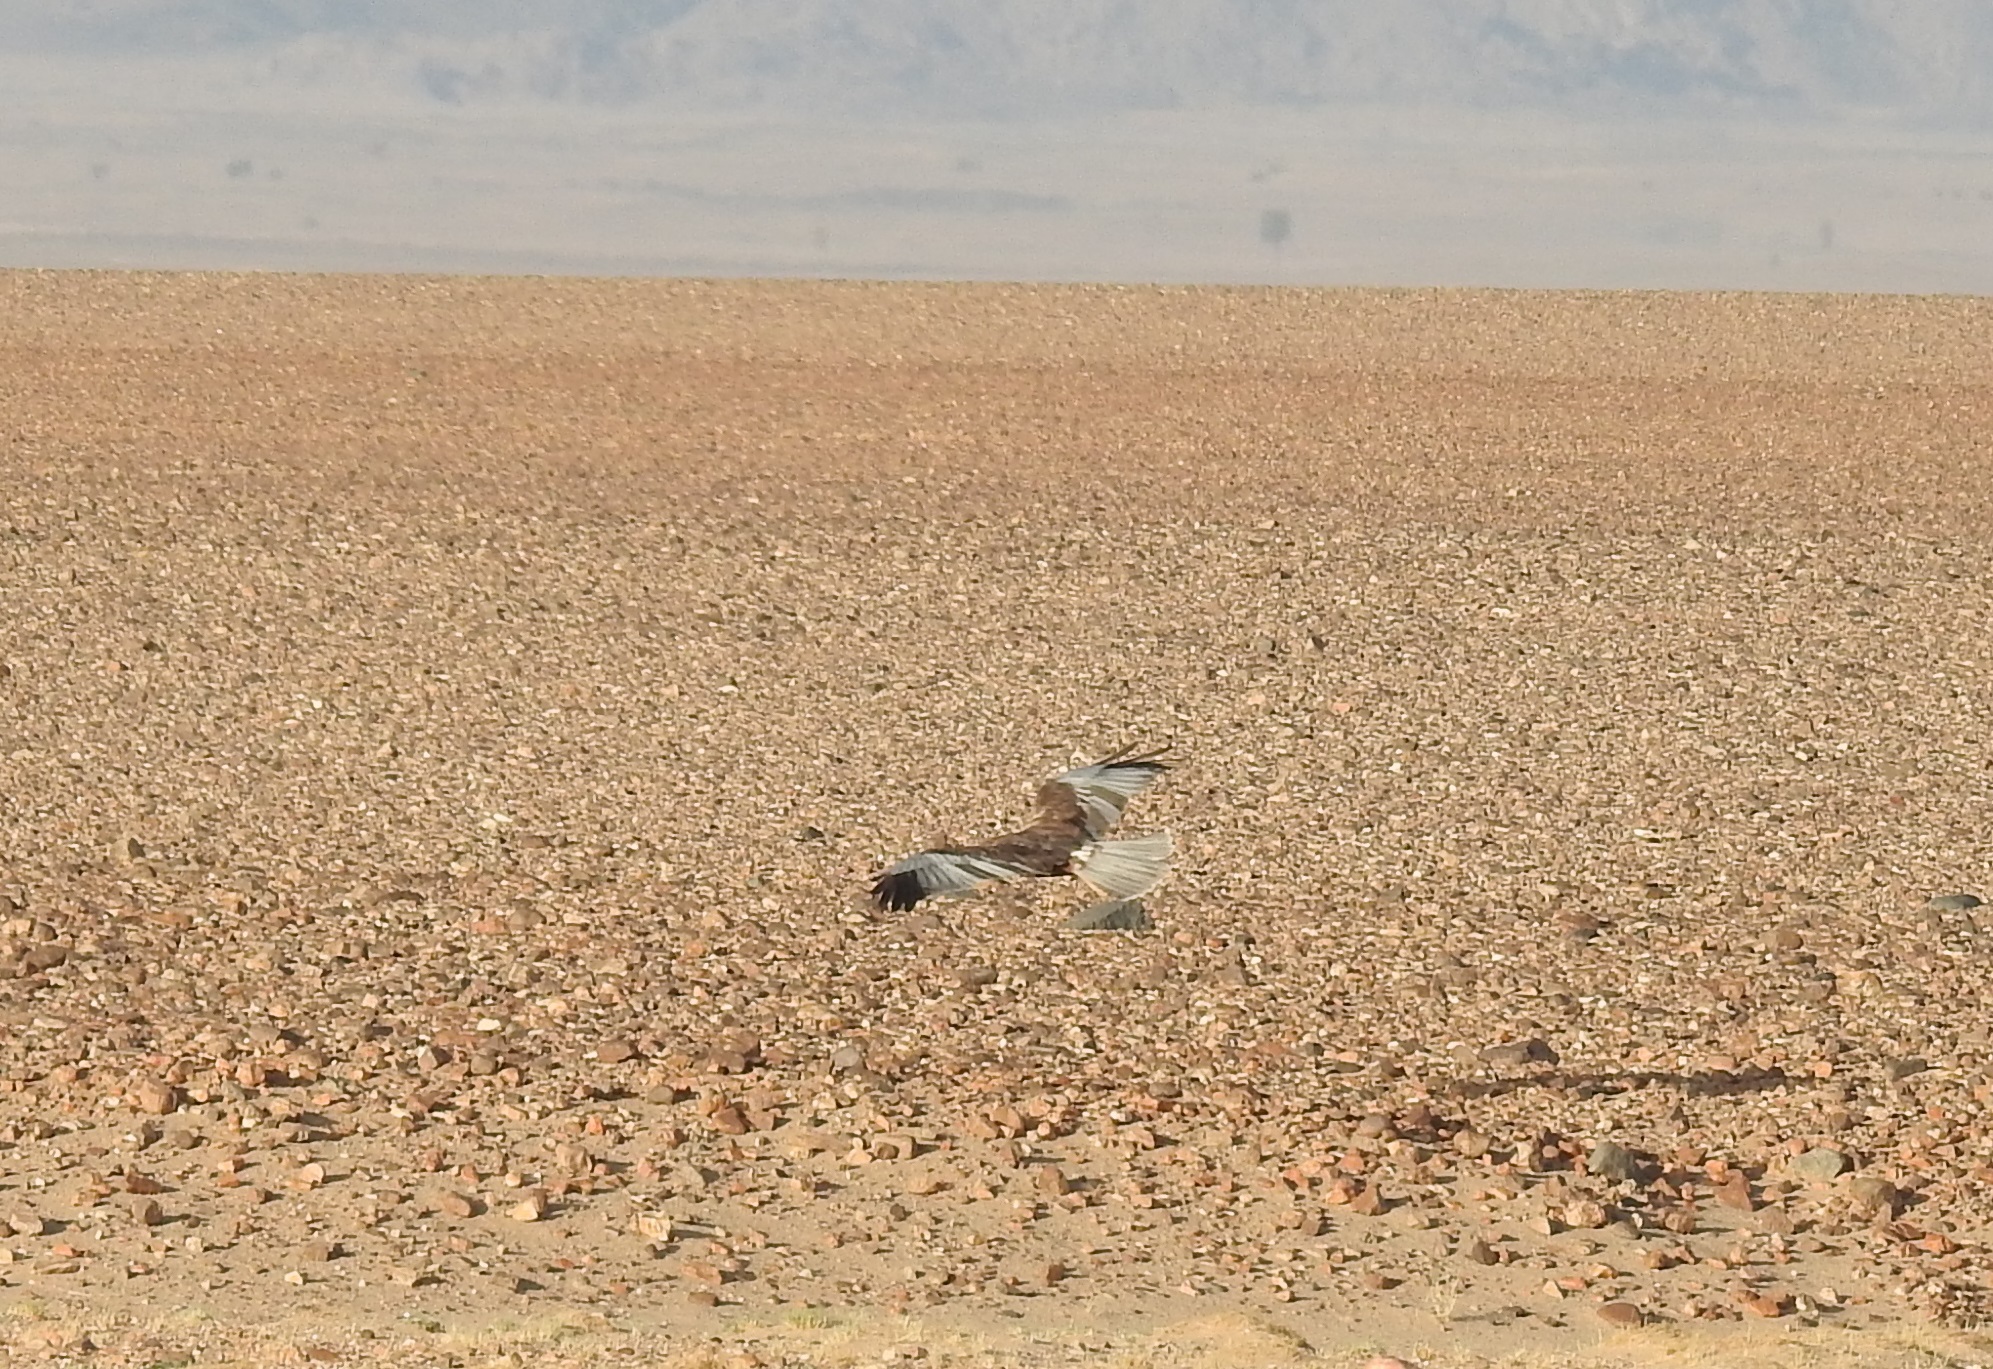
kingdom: Animalia
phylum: Chordata
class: Aves
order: Accipitriformes
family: Accipitridae
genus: Circus
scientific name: Circus aeruginosus
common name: Western marsh harrier
